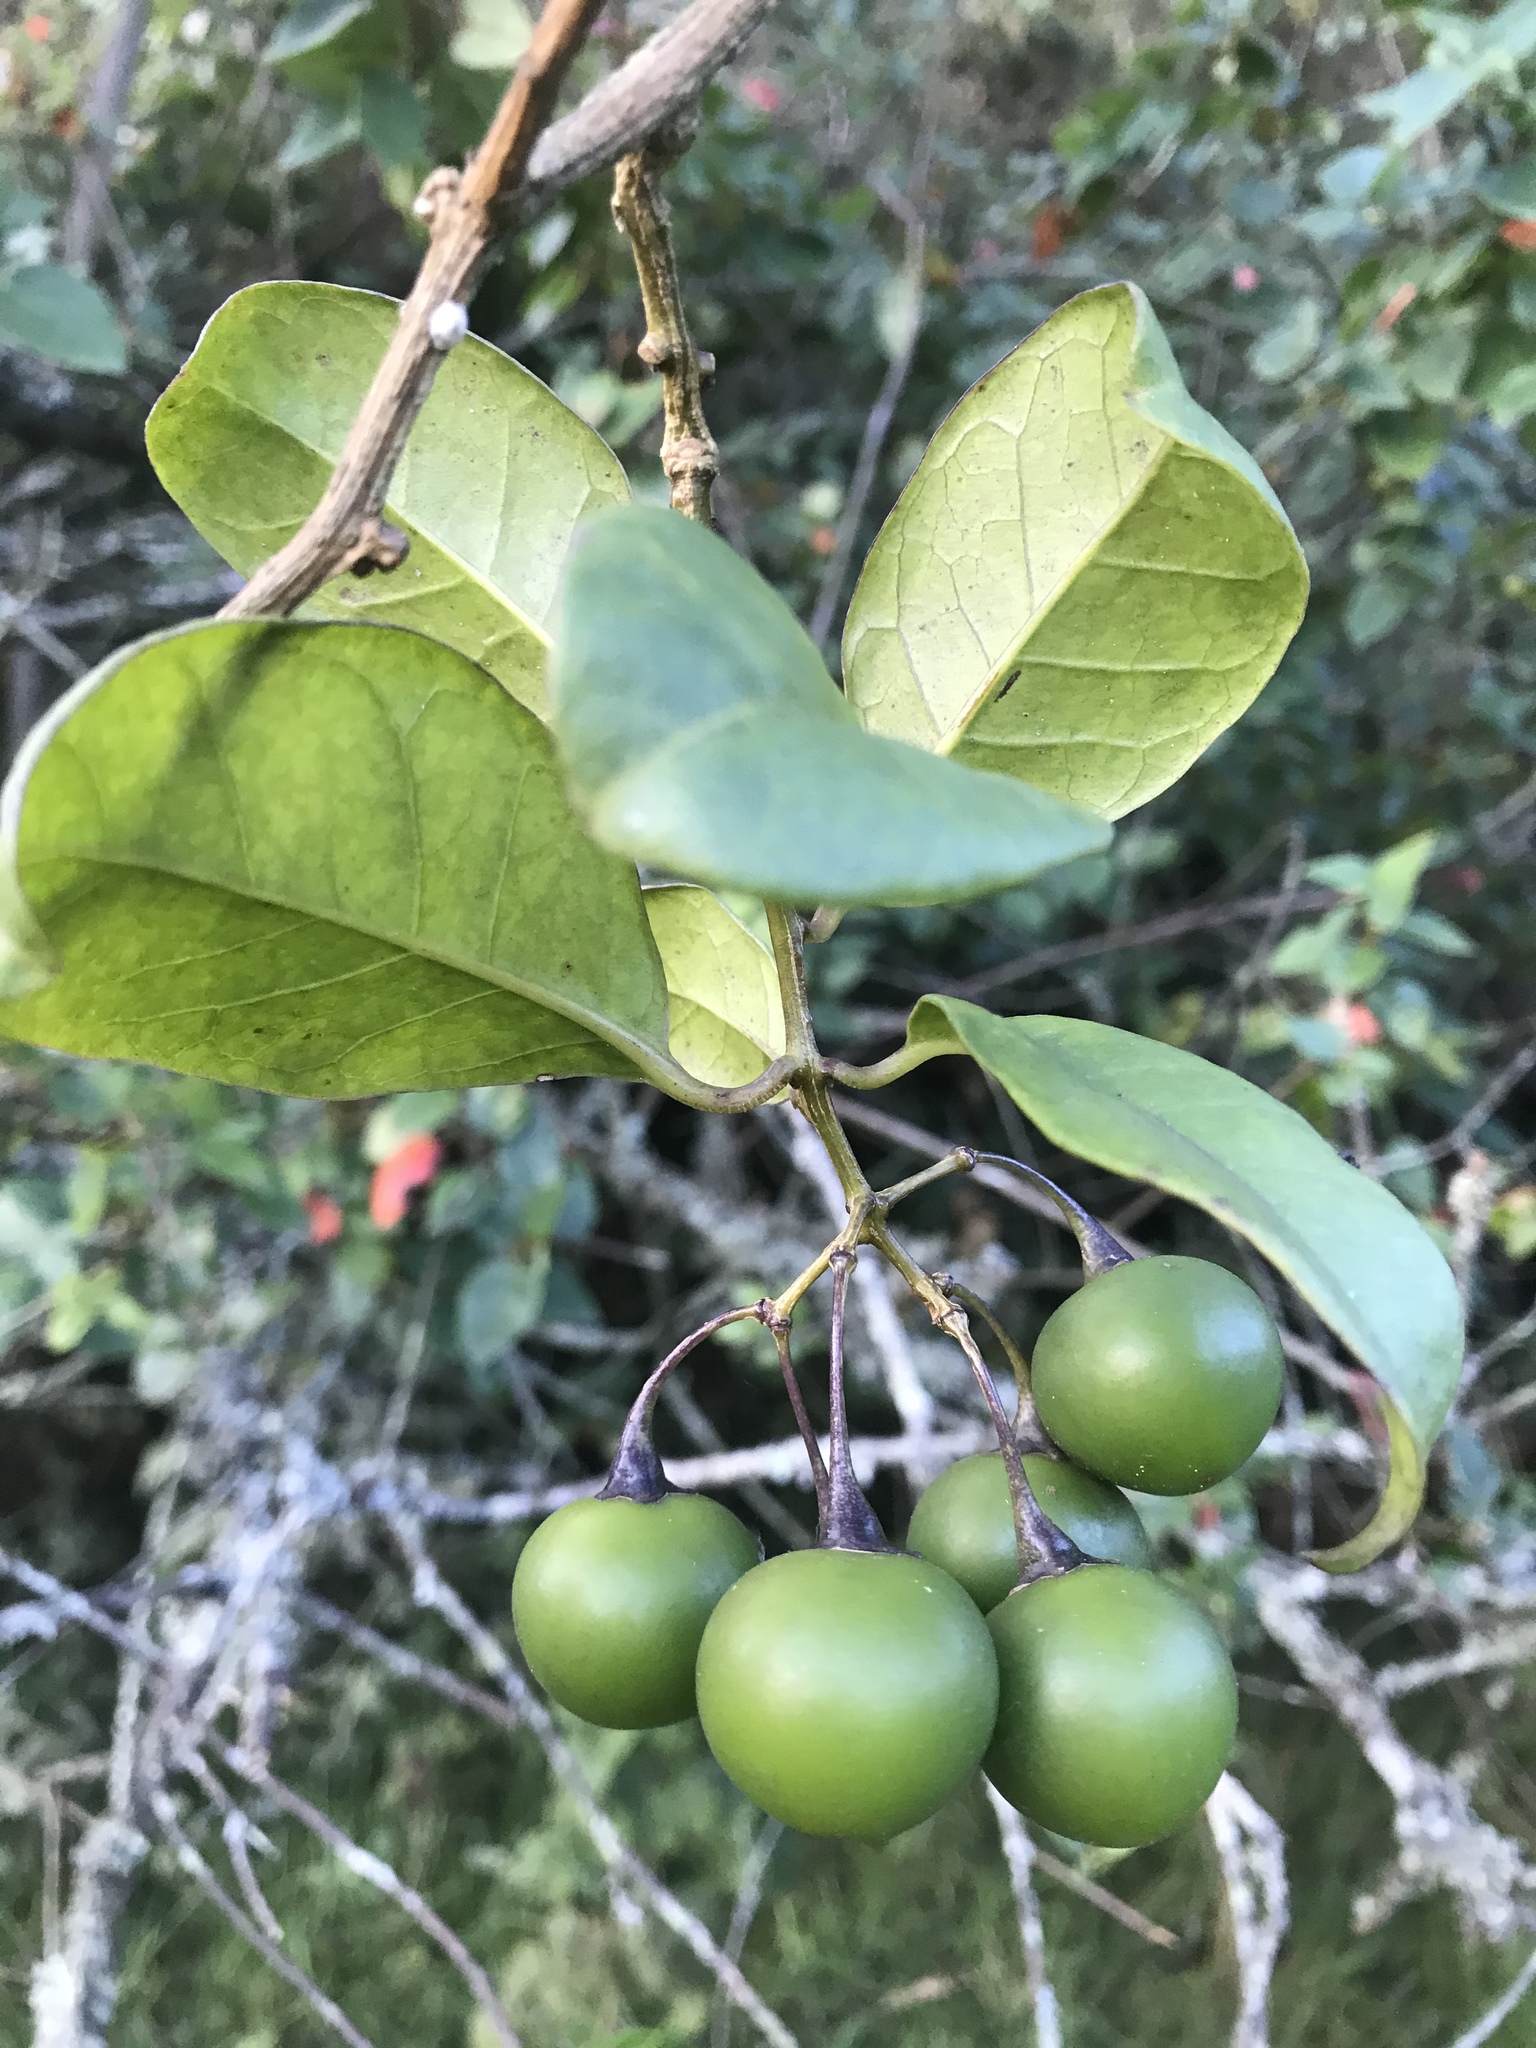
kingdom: Plantae
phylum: Tracheophyta
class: Magnoliopsida
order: Solanales
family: Solanaceae
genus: Solanum
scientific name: Solanum luculentum
